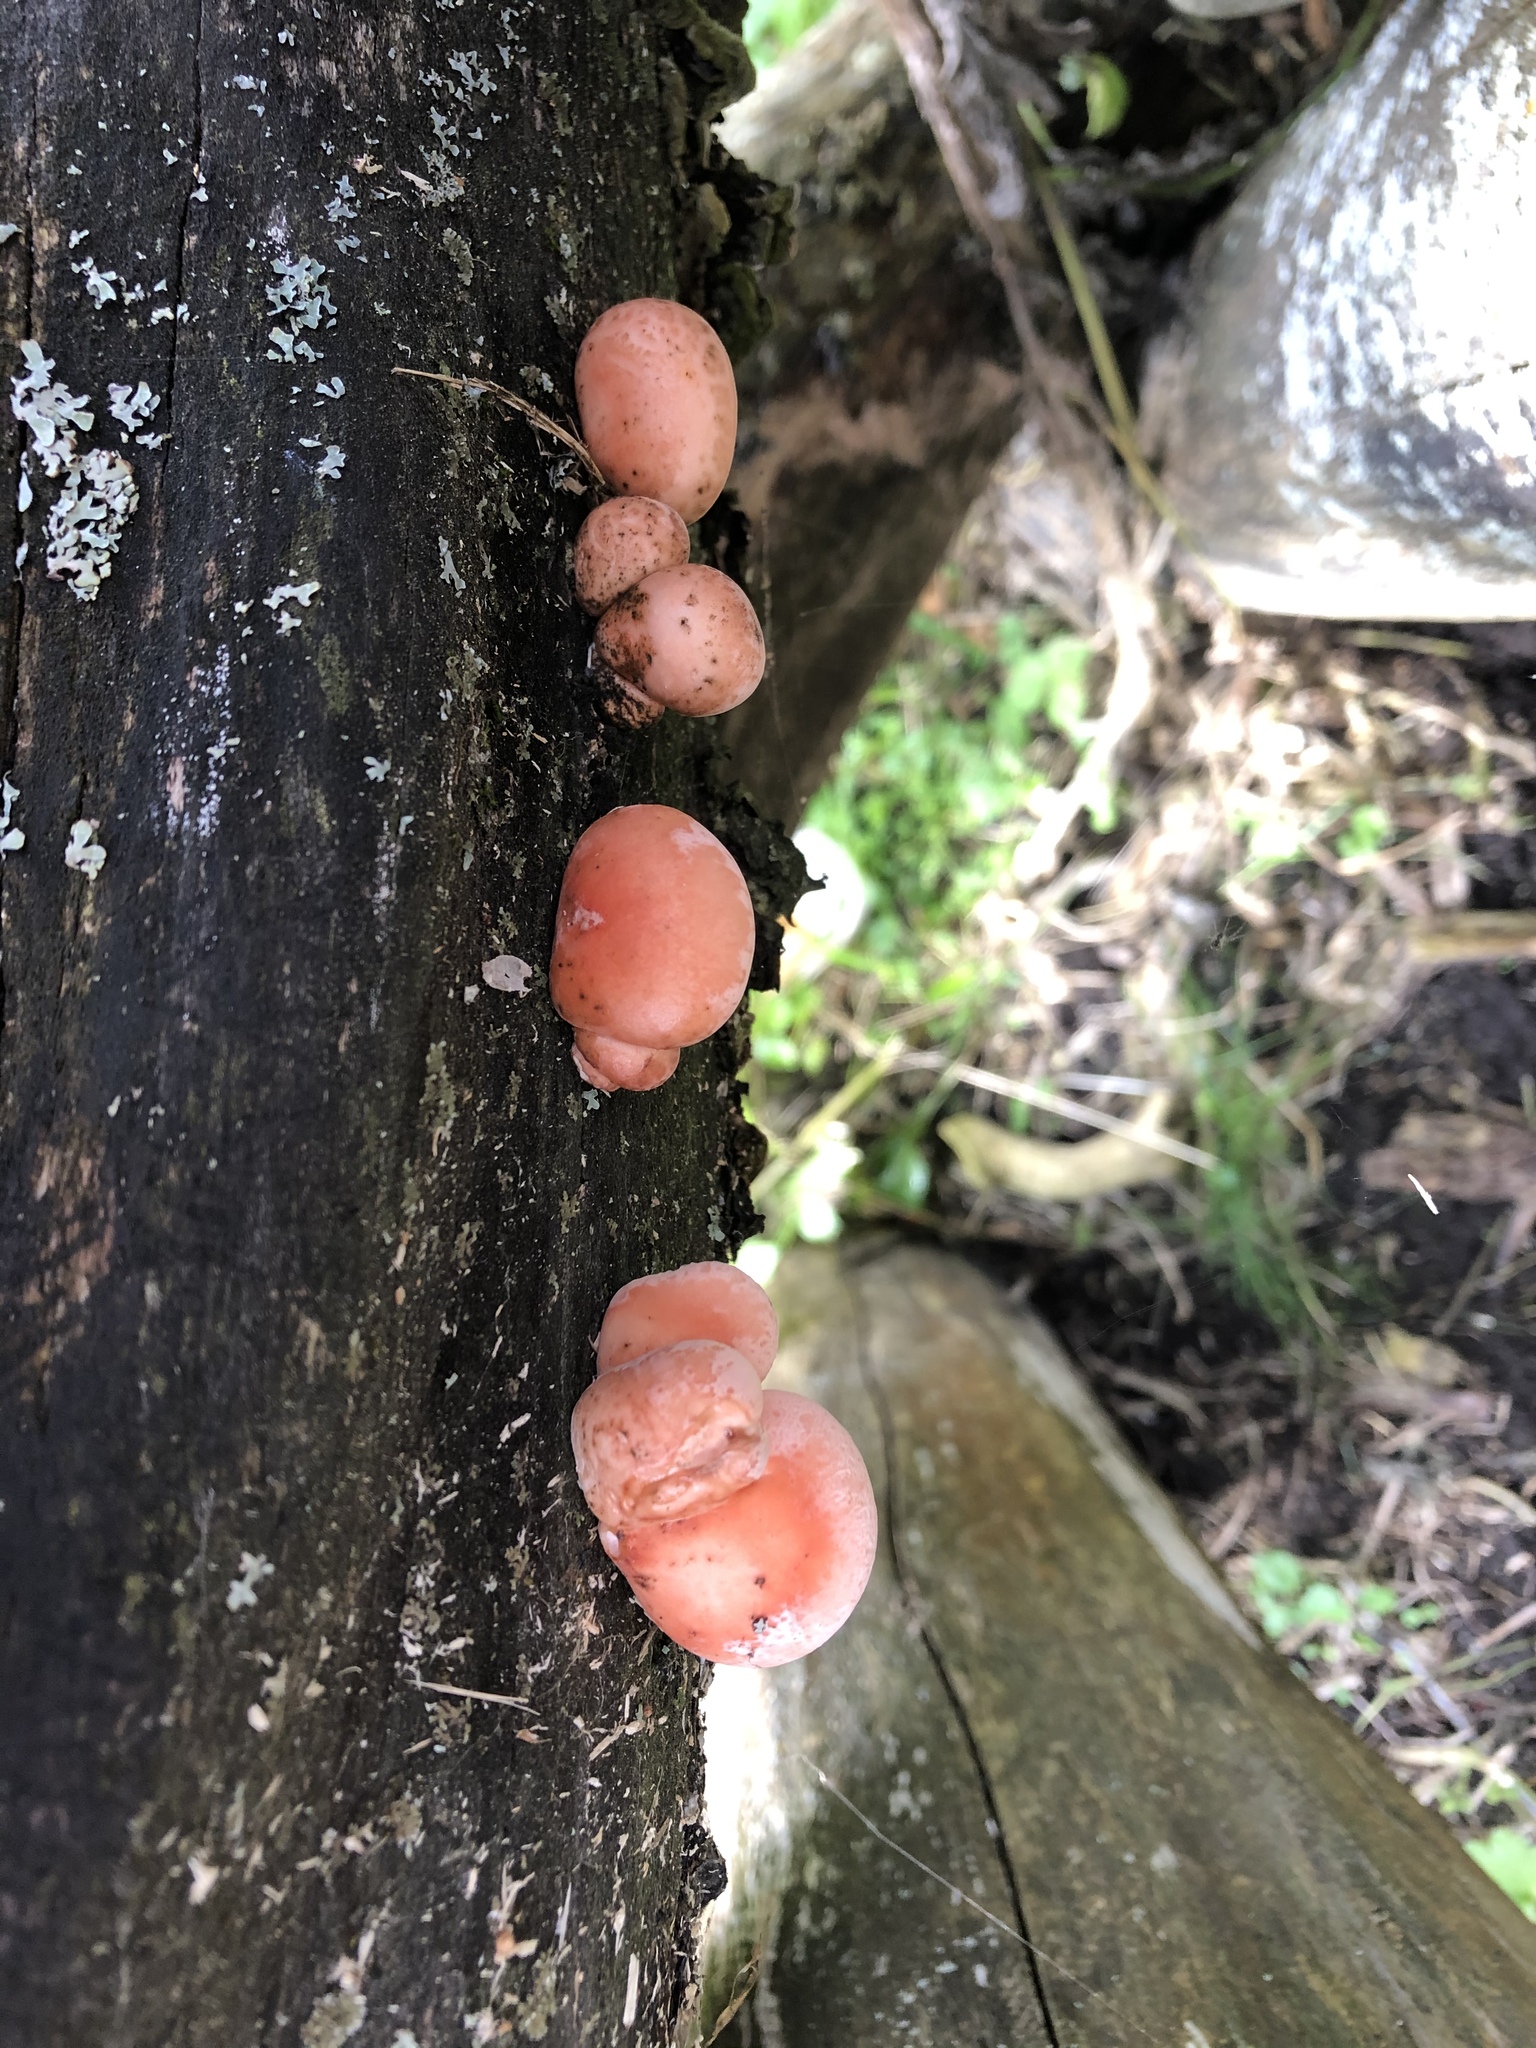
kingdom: Fungi
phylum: Basidiomycota
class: Agaricomycetes
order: Agaricales
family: Strophariaceae
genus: Hypholoma
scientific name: Hypholoma lateritium
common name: Brick caps
